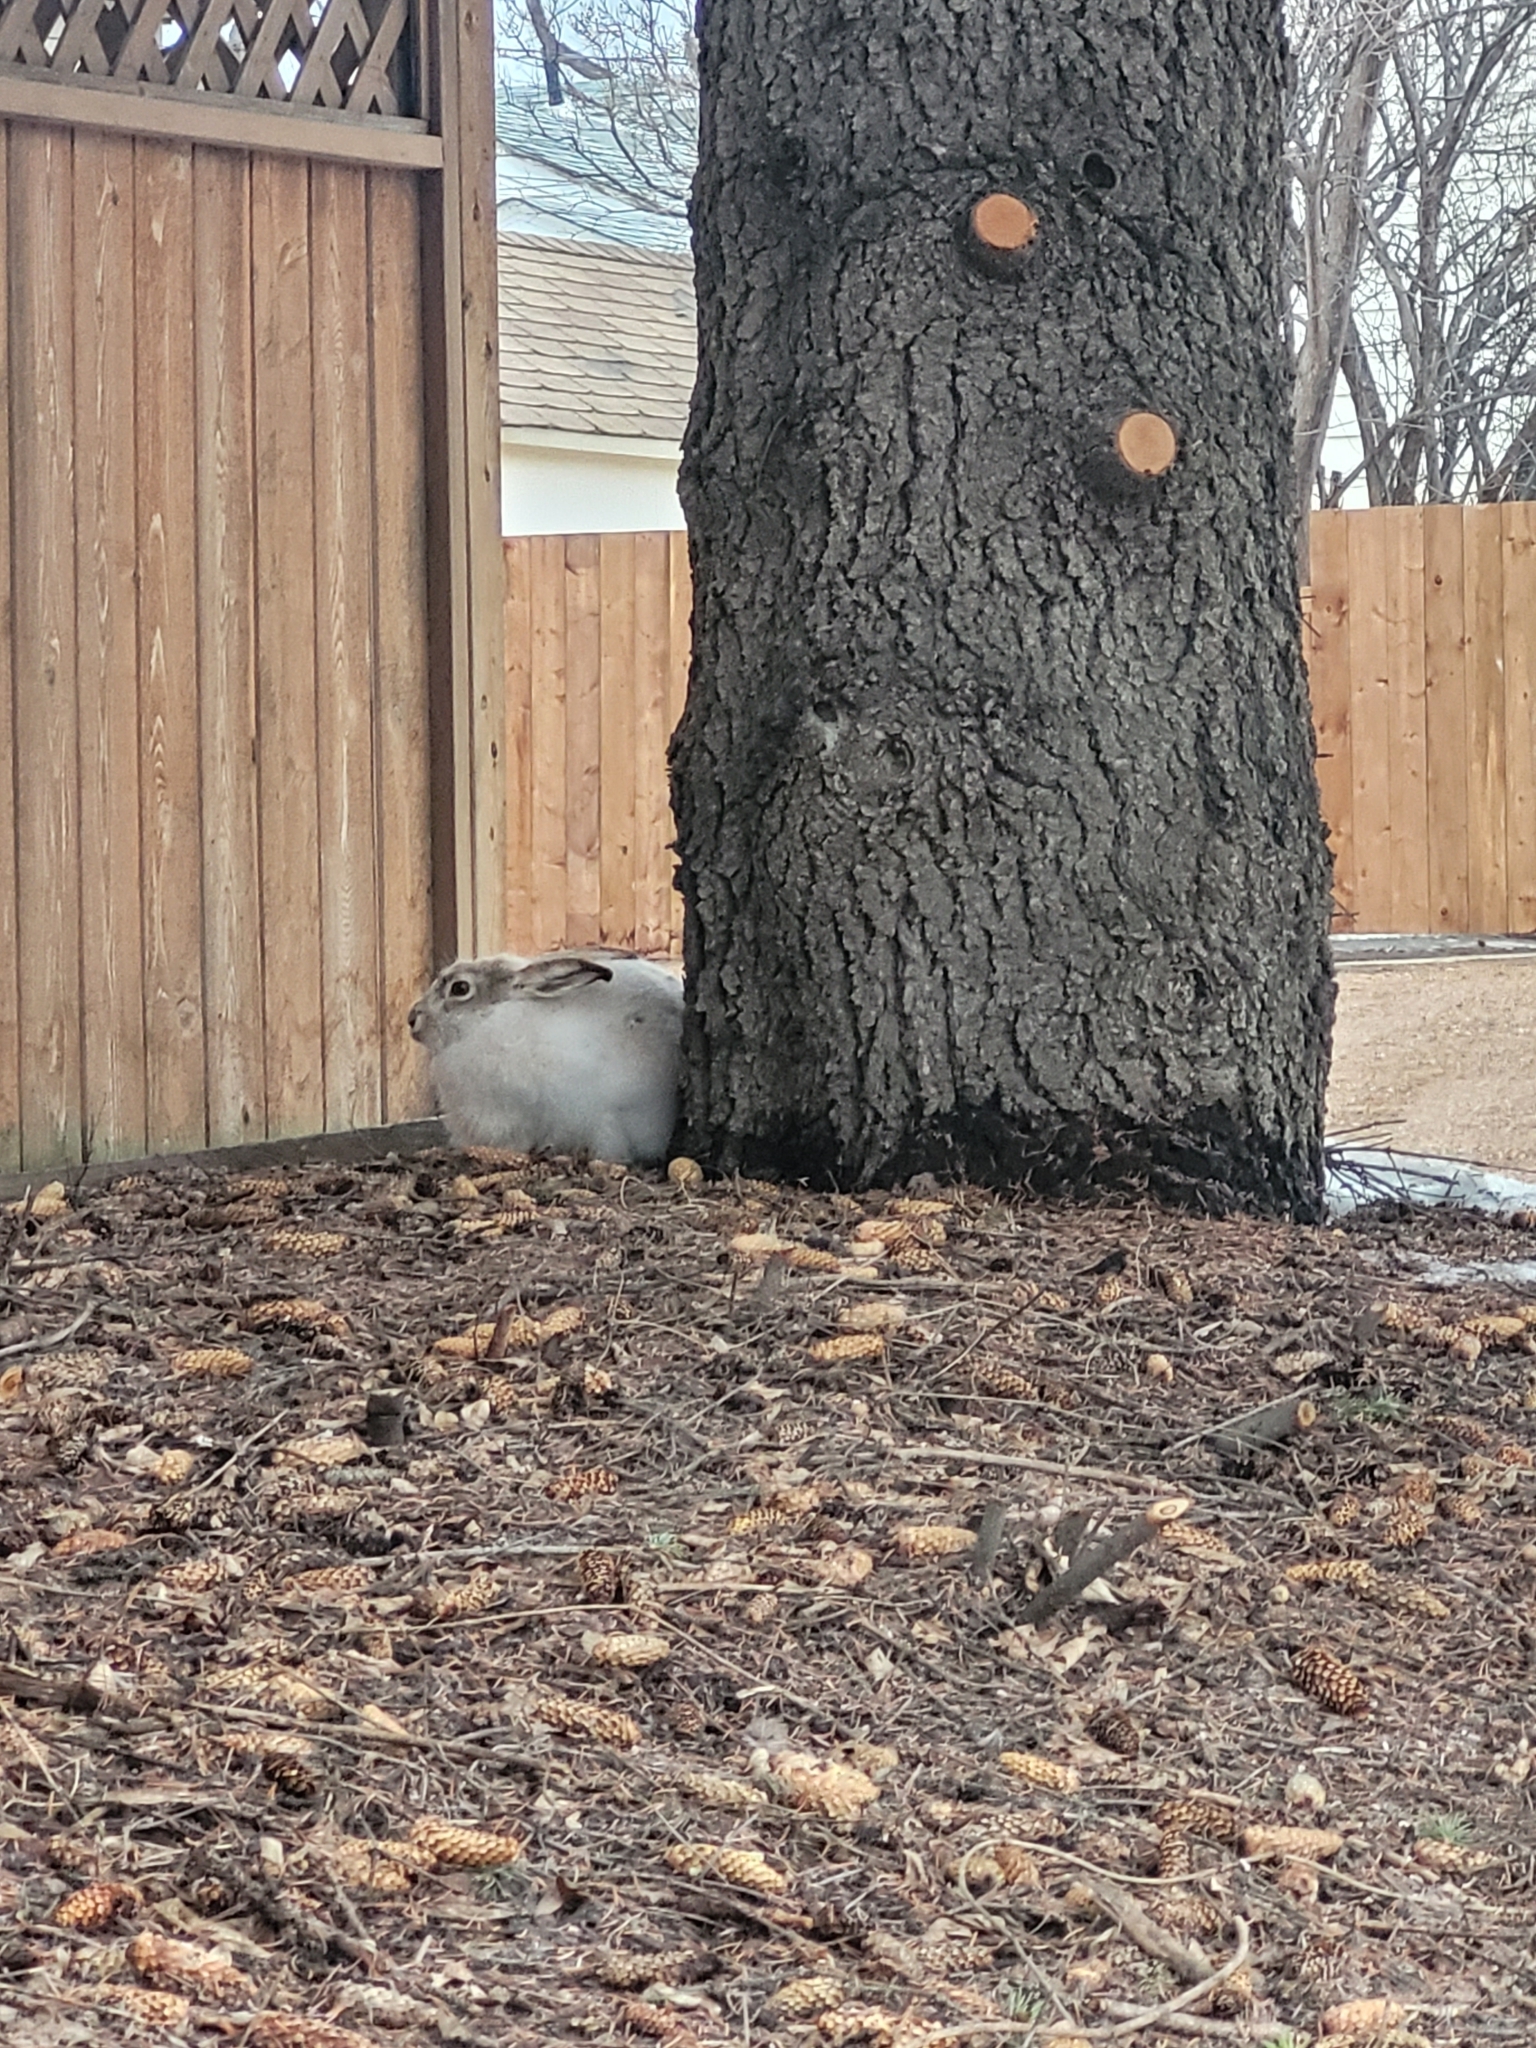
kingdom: Animalia
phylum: Chordata
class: Mammalia
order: Lagomorpha
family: Leporidae
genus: Lepus
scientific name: Lepus townsendii
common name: White-tailed jackrabbit
